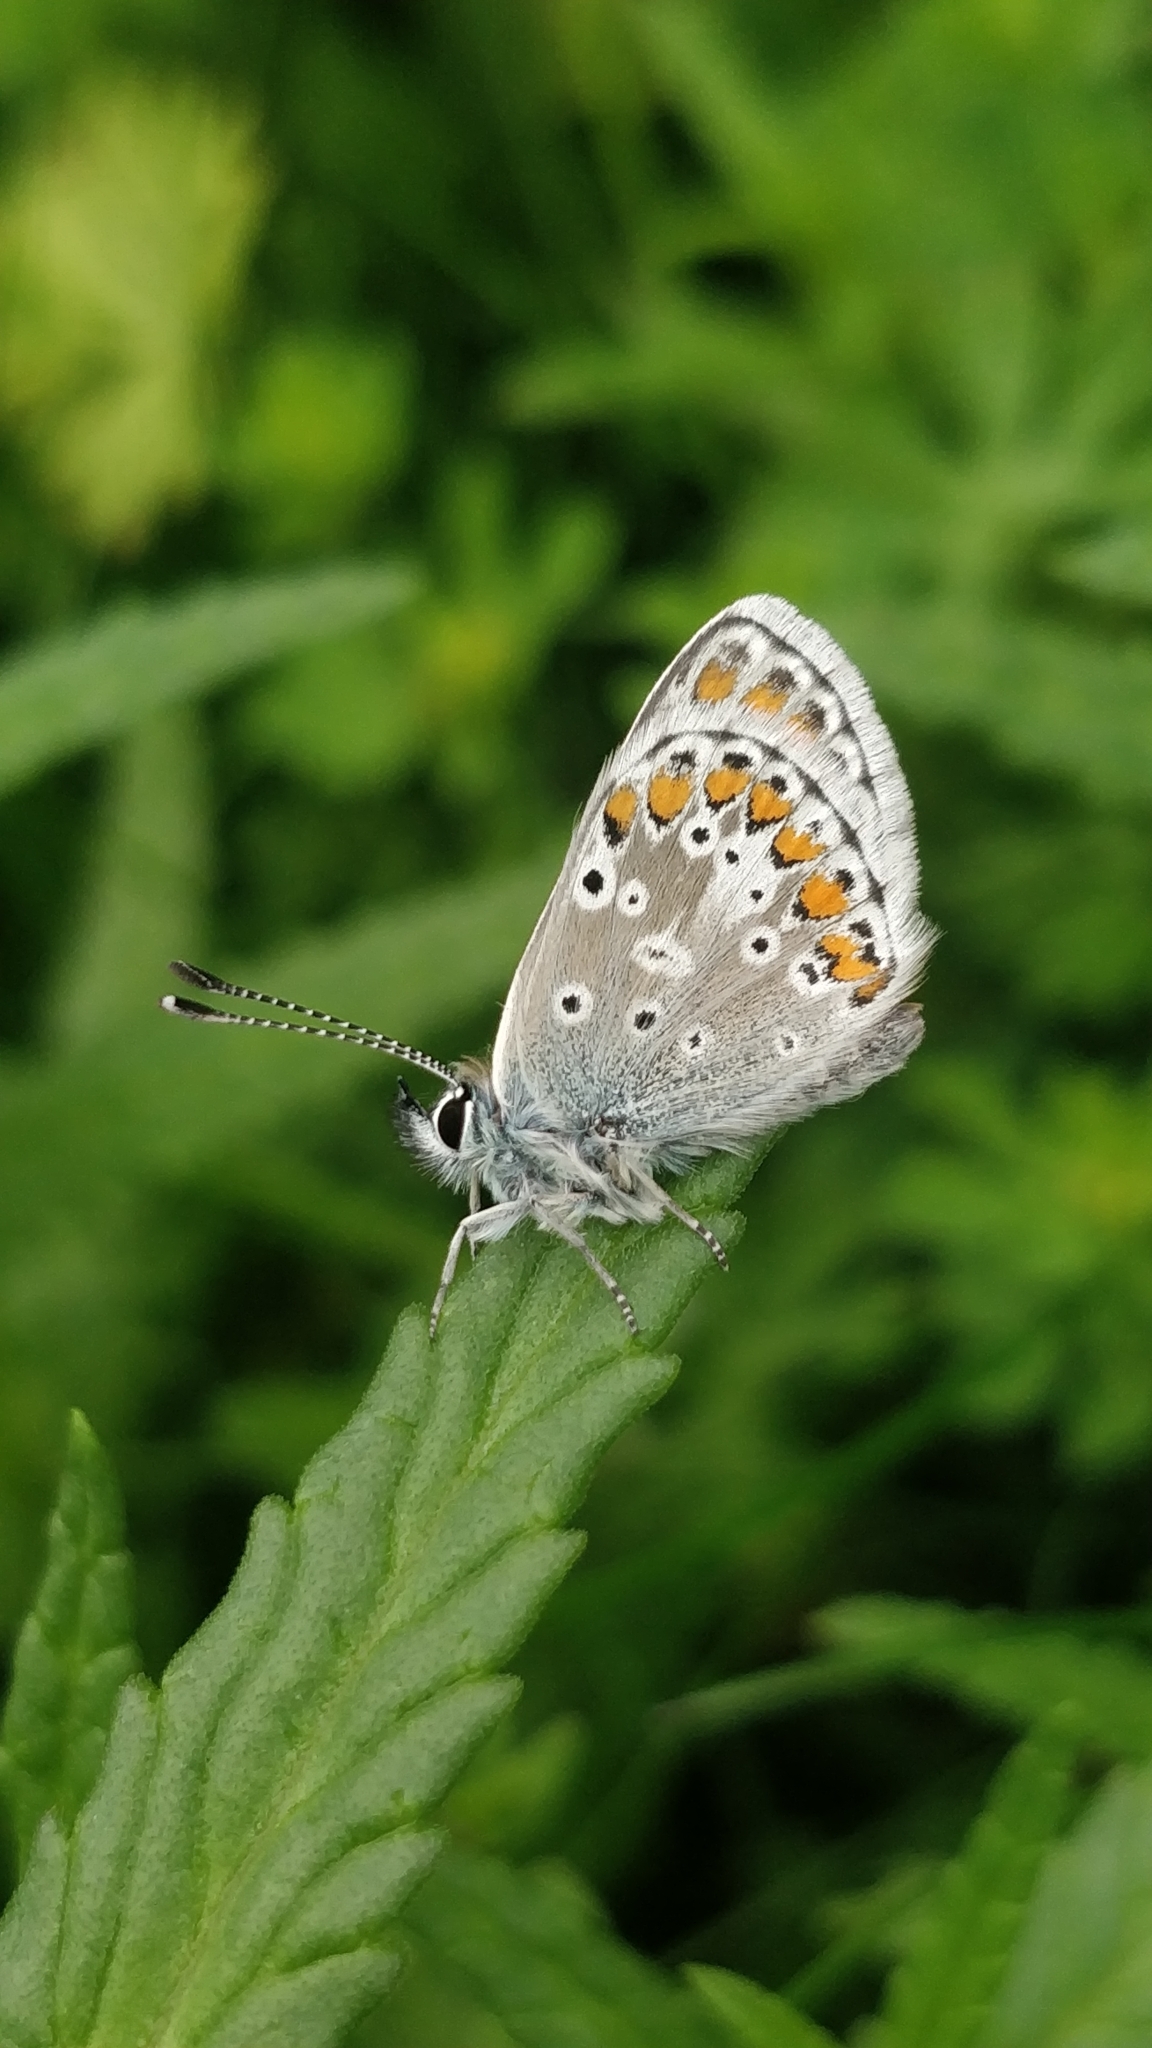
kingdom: Animalia
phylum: Arthropoda
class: Insecta
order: Lepidoptera
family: Lycaenidae
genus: Aricia
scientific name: Aricia agestis
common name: Brown argus
